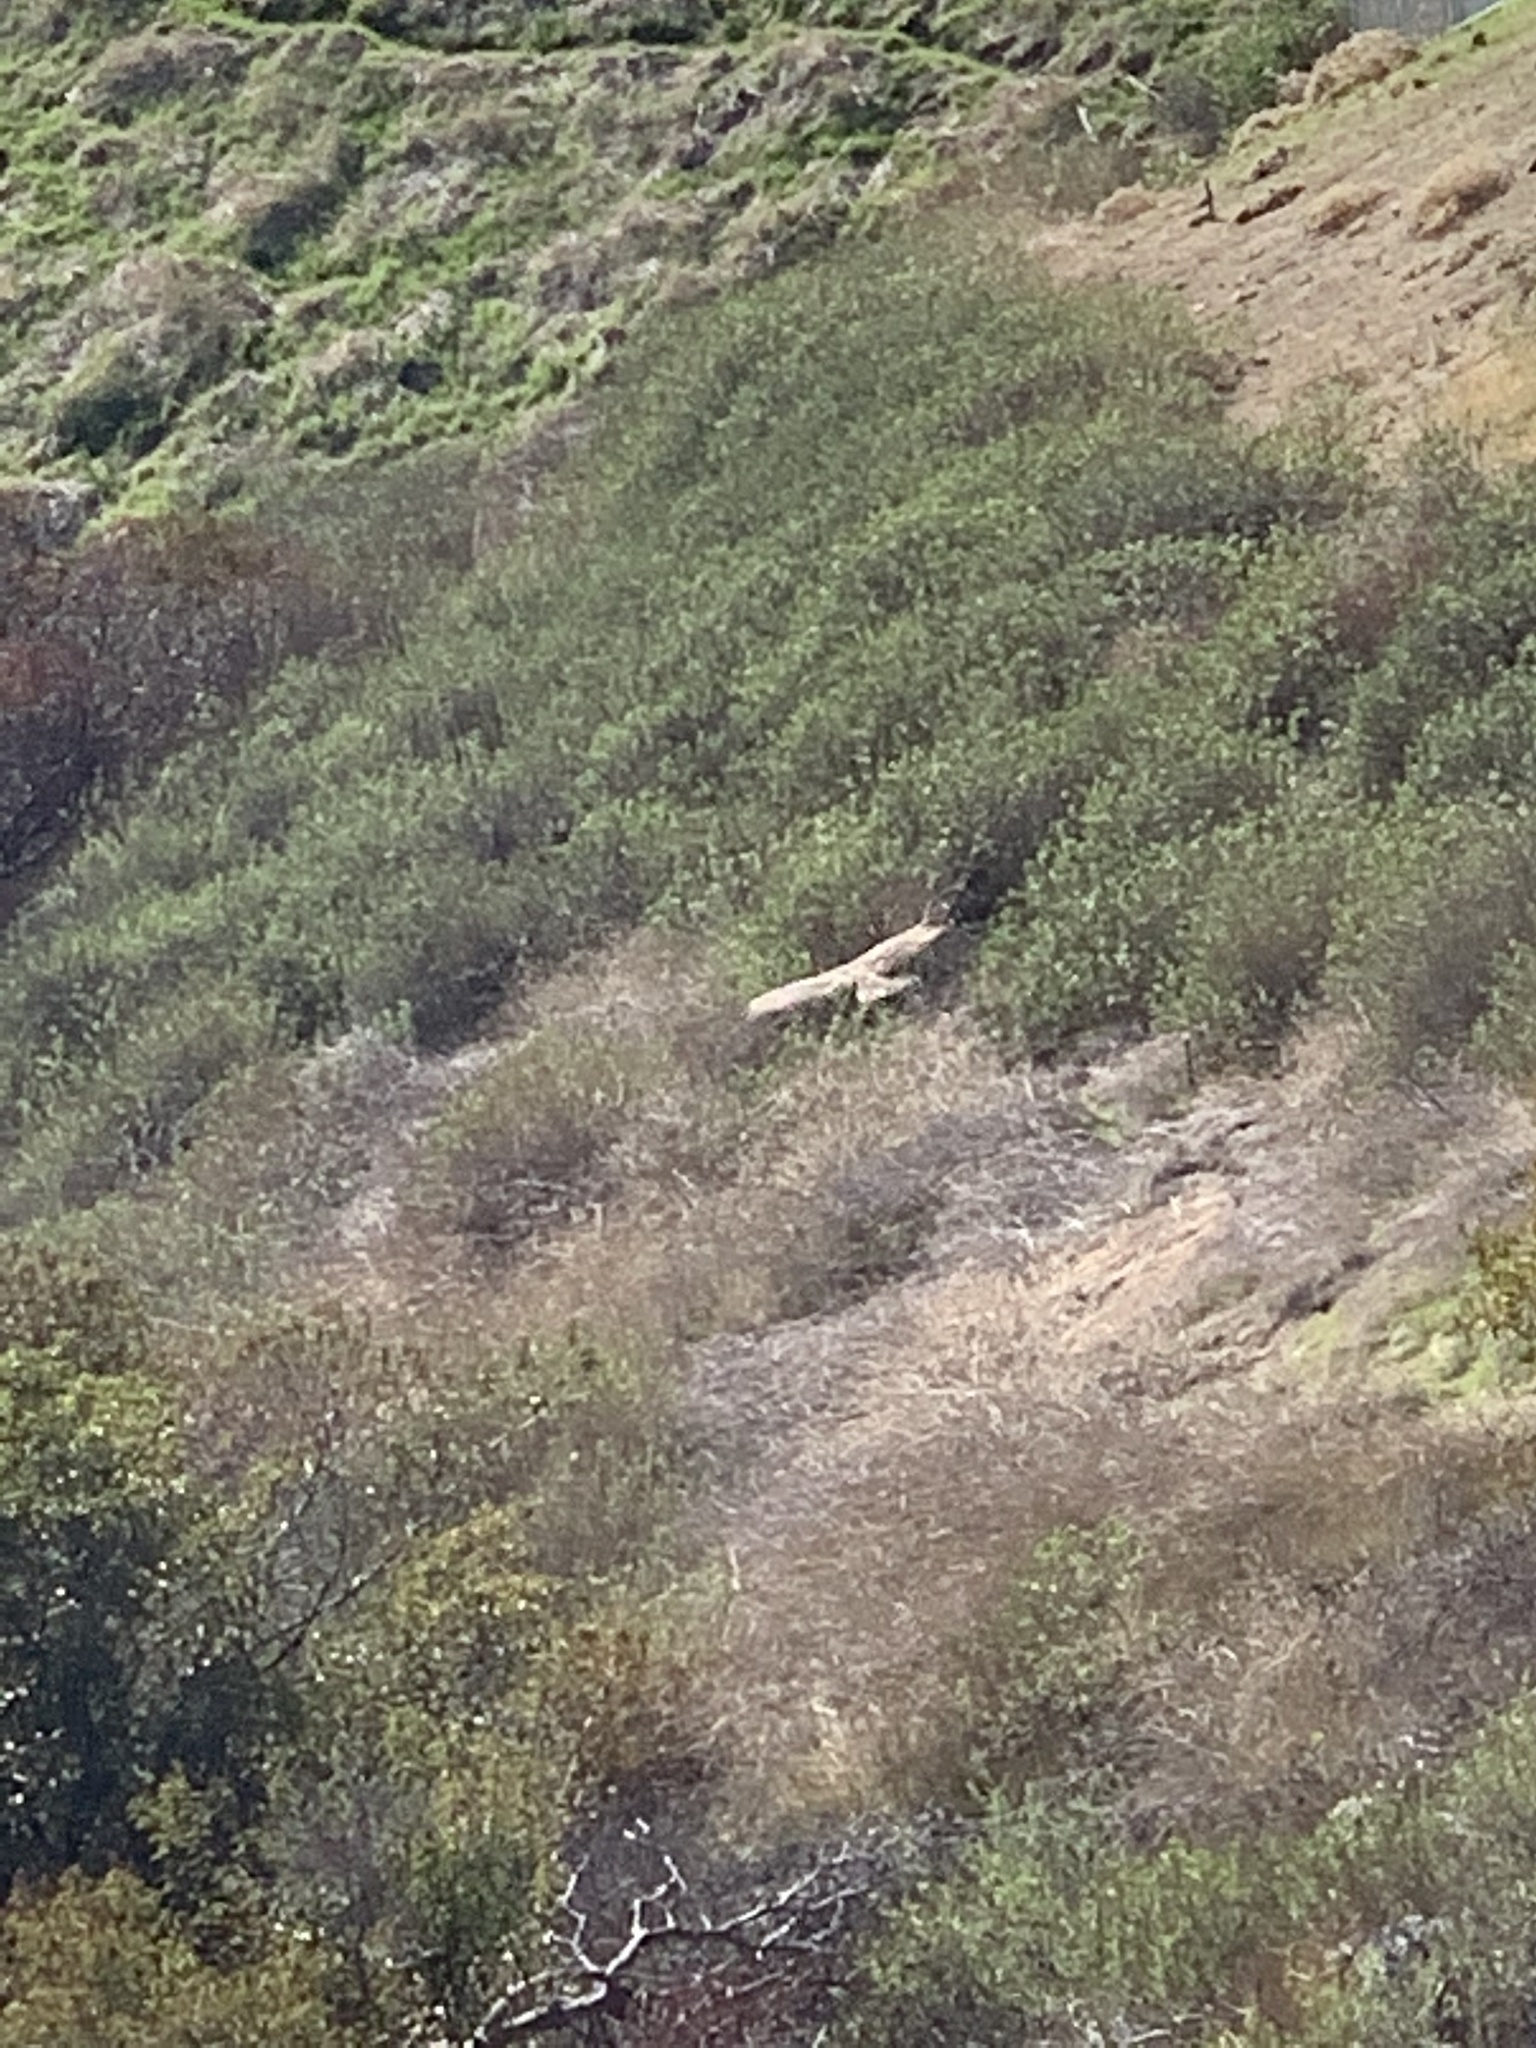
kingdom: Animalia
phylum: Chordata
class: Aves
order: Accipitriformes
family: Accipitridae
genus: Buteo
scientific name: Buteo jamaicensis
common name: Red-tailed hawk
